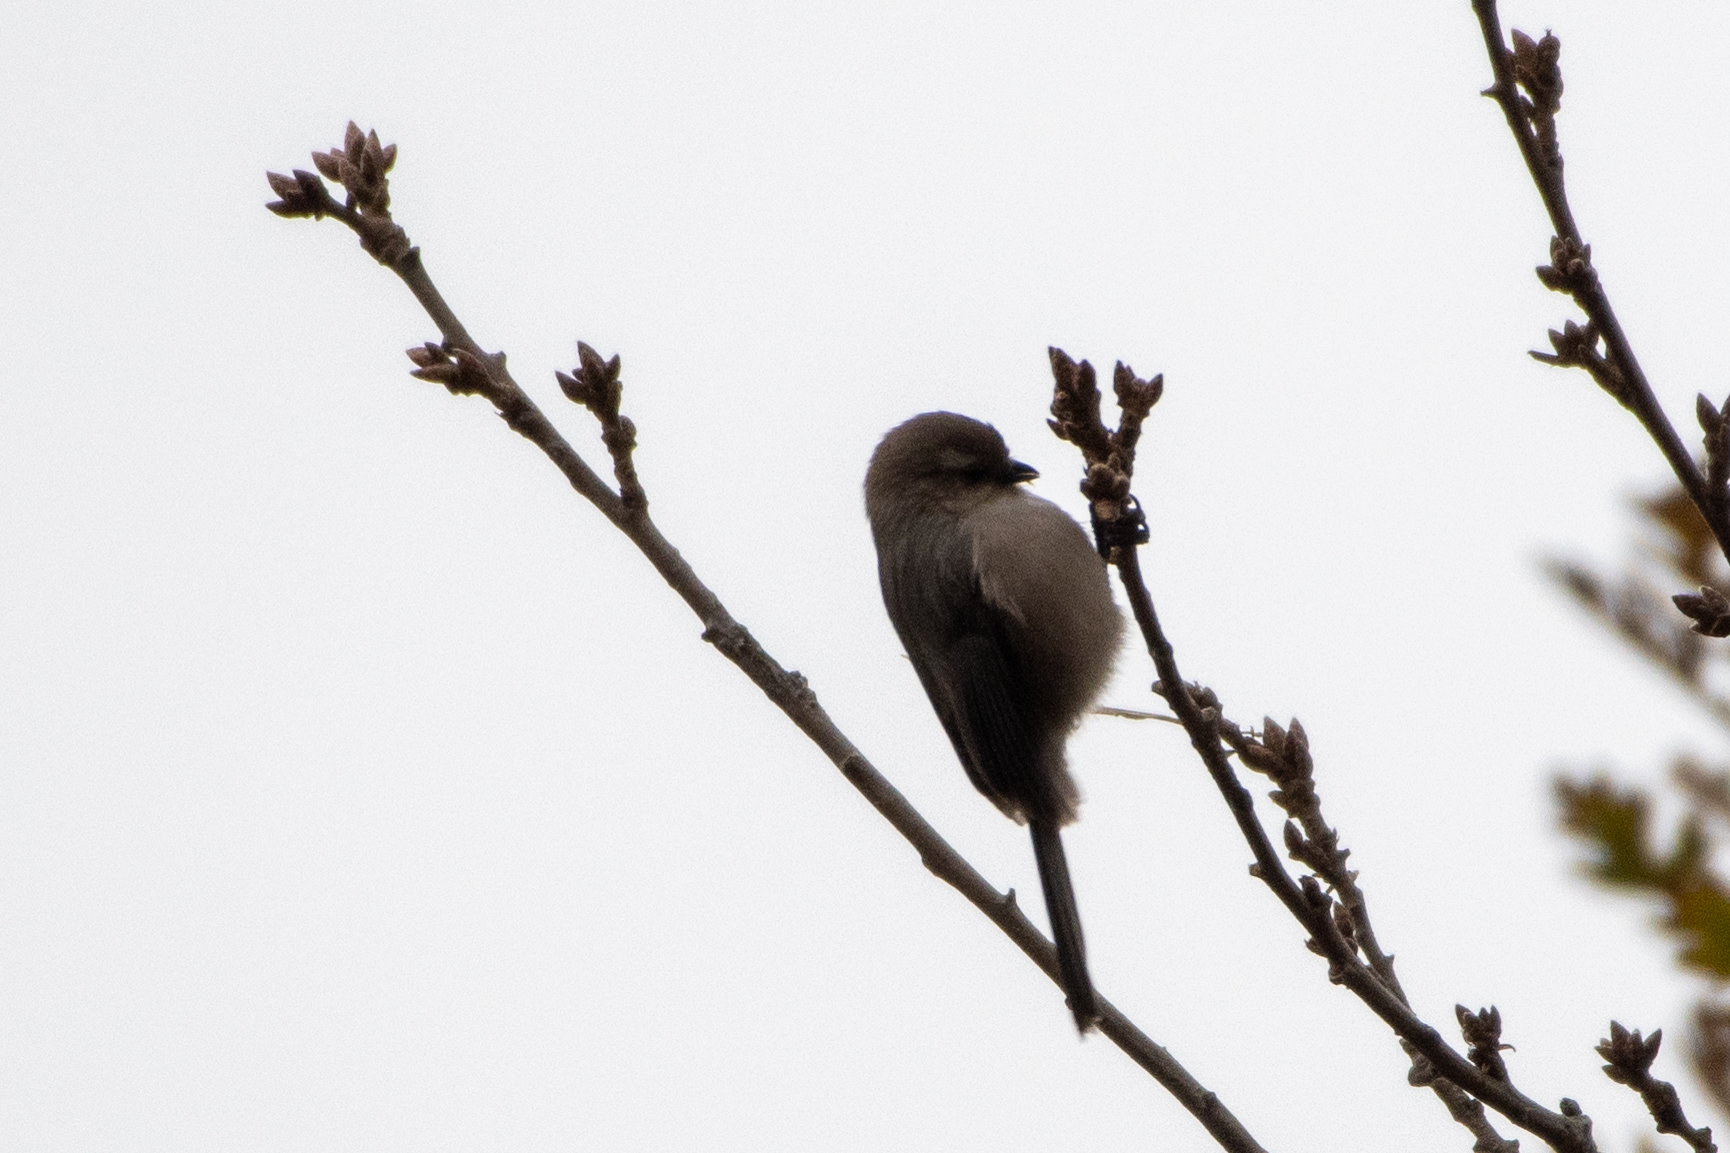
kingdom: Animalia
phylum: Chordata
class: Aves
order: Passeriformes
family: Aegithalidae
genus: Psaltriparus
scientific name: Psaltriparus minimus
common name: American bushtit
